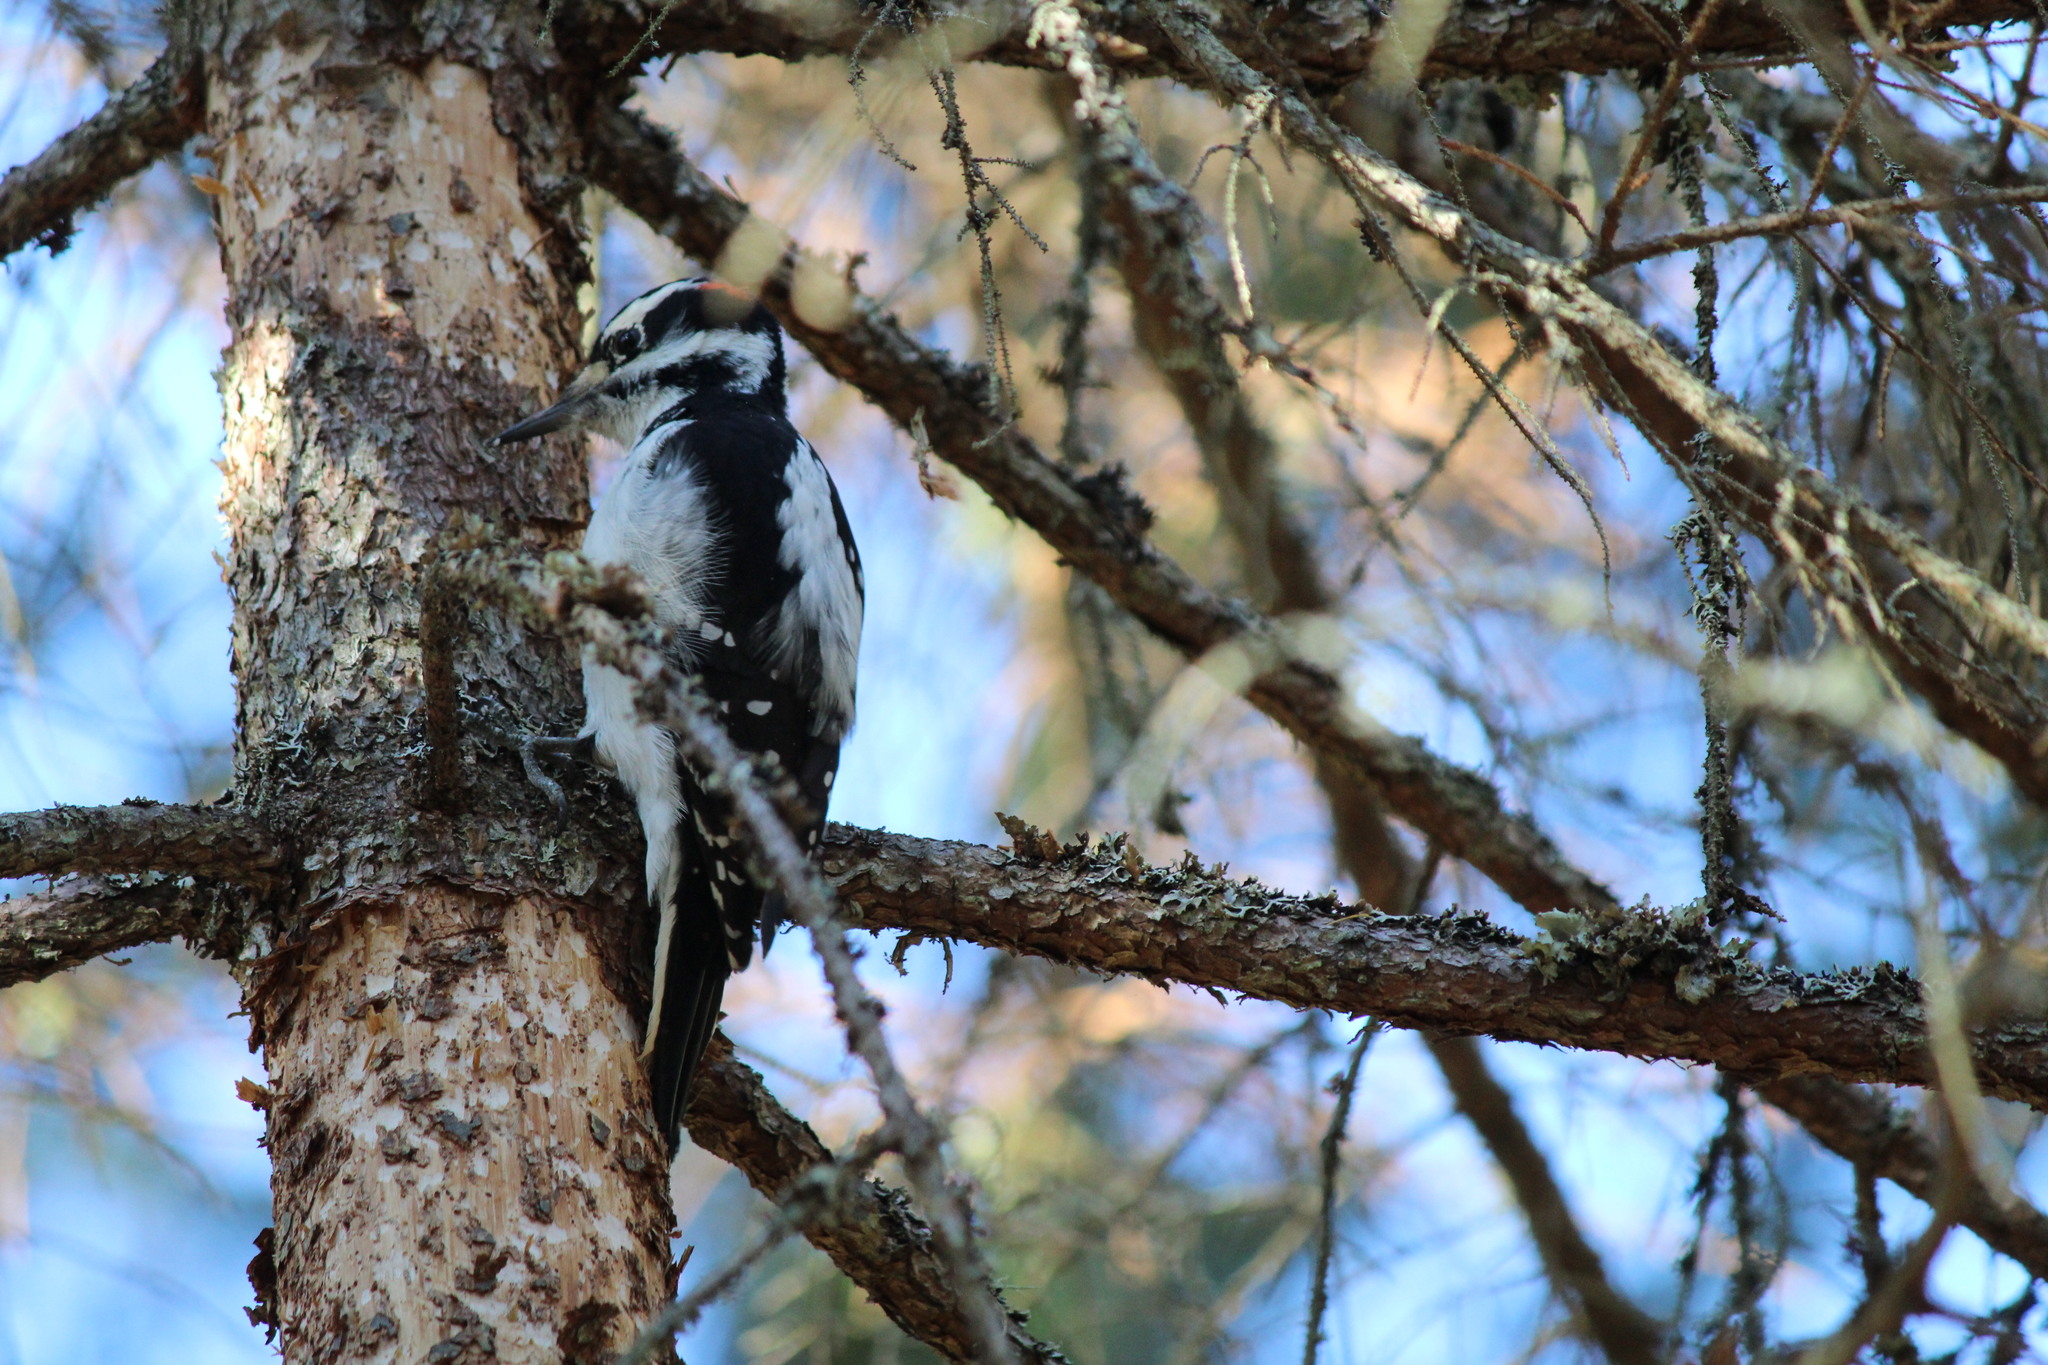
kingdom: Animalia
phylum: Chordata
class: Aves
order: Piciformes
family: Picidae
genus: Leuconotopicus
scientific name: Leuconotopicus villosus
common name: Hairy woodpecker
